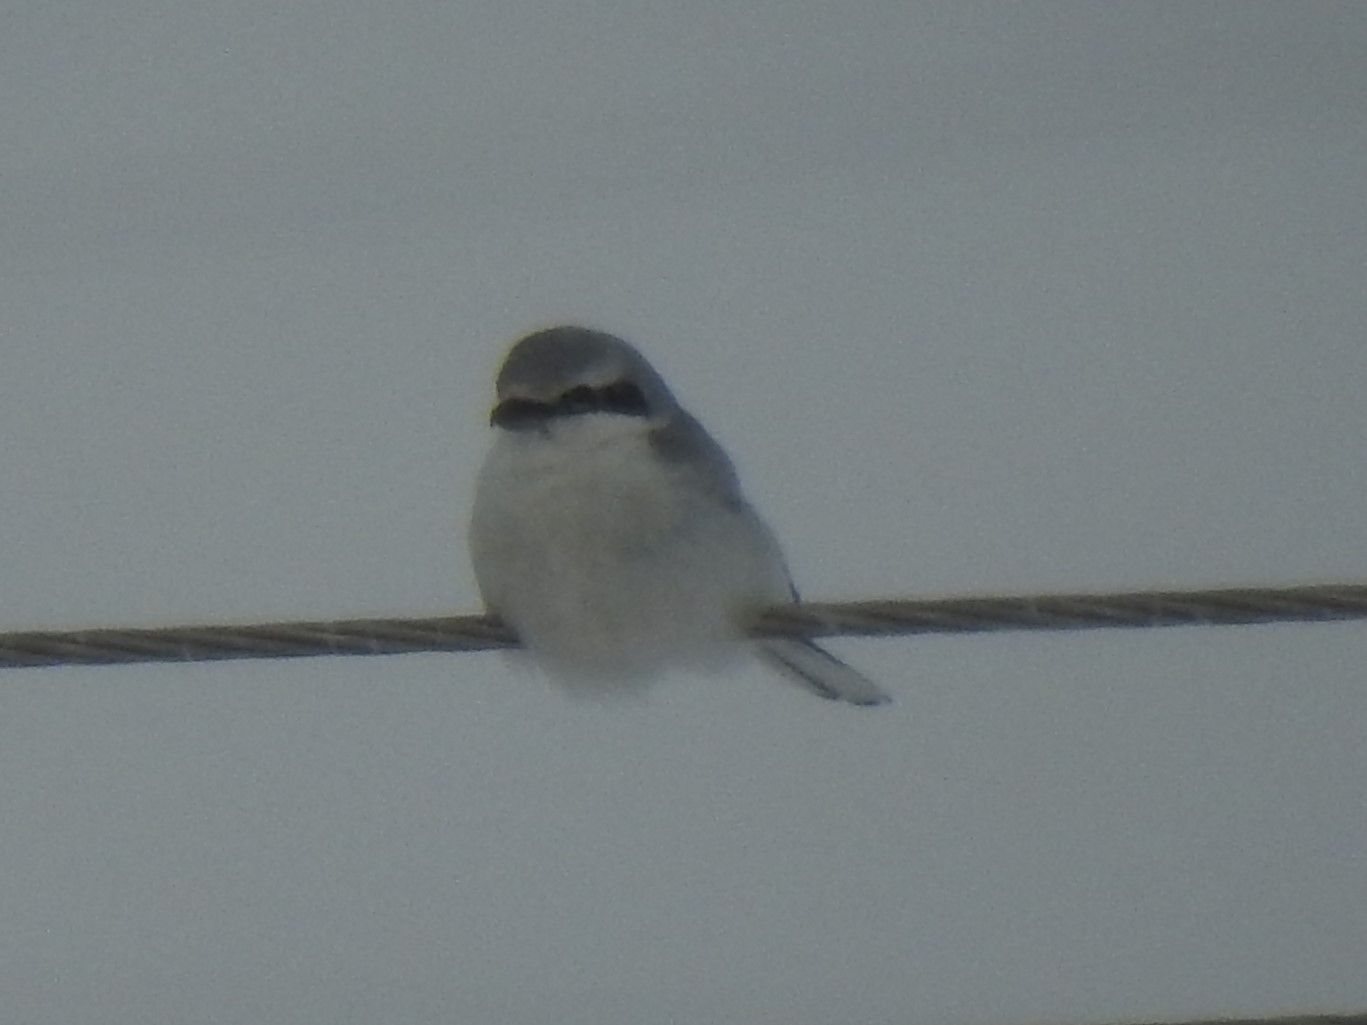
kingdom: Animalia
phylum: Chordata
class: Aves
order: Passeriformes
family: Laniidae
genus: Lanius
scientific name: Lanius borealis
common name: Northern shrike
